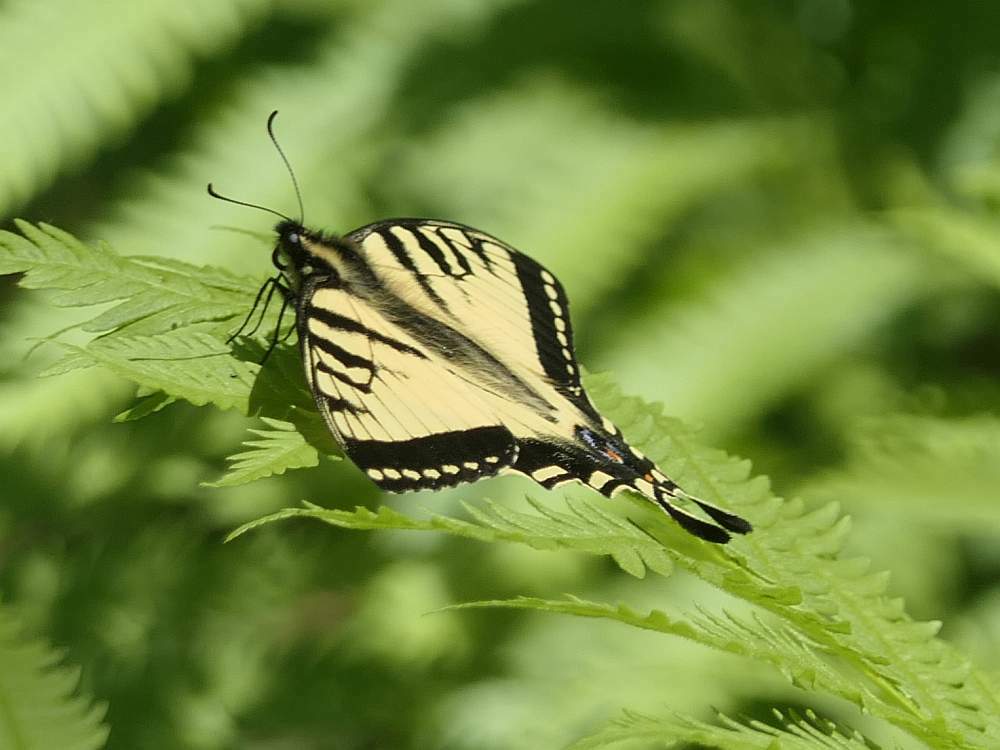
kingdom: Animalia
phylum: Arthropoda
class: Insecta
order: Lepidoptera
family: Papilionidae
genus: Papilio
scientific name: Papilio canadensis
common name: Canadian tiger swallowtail
